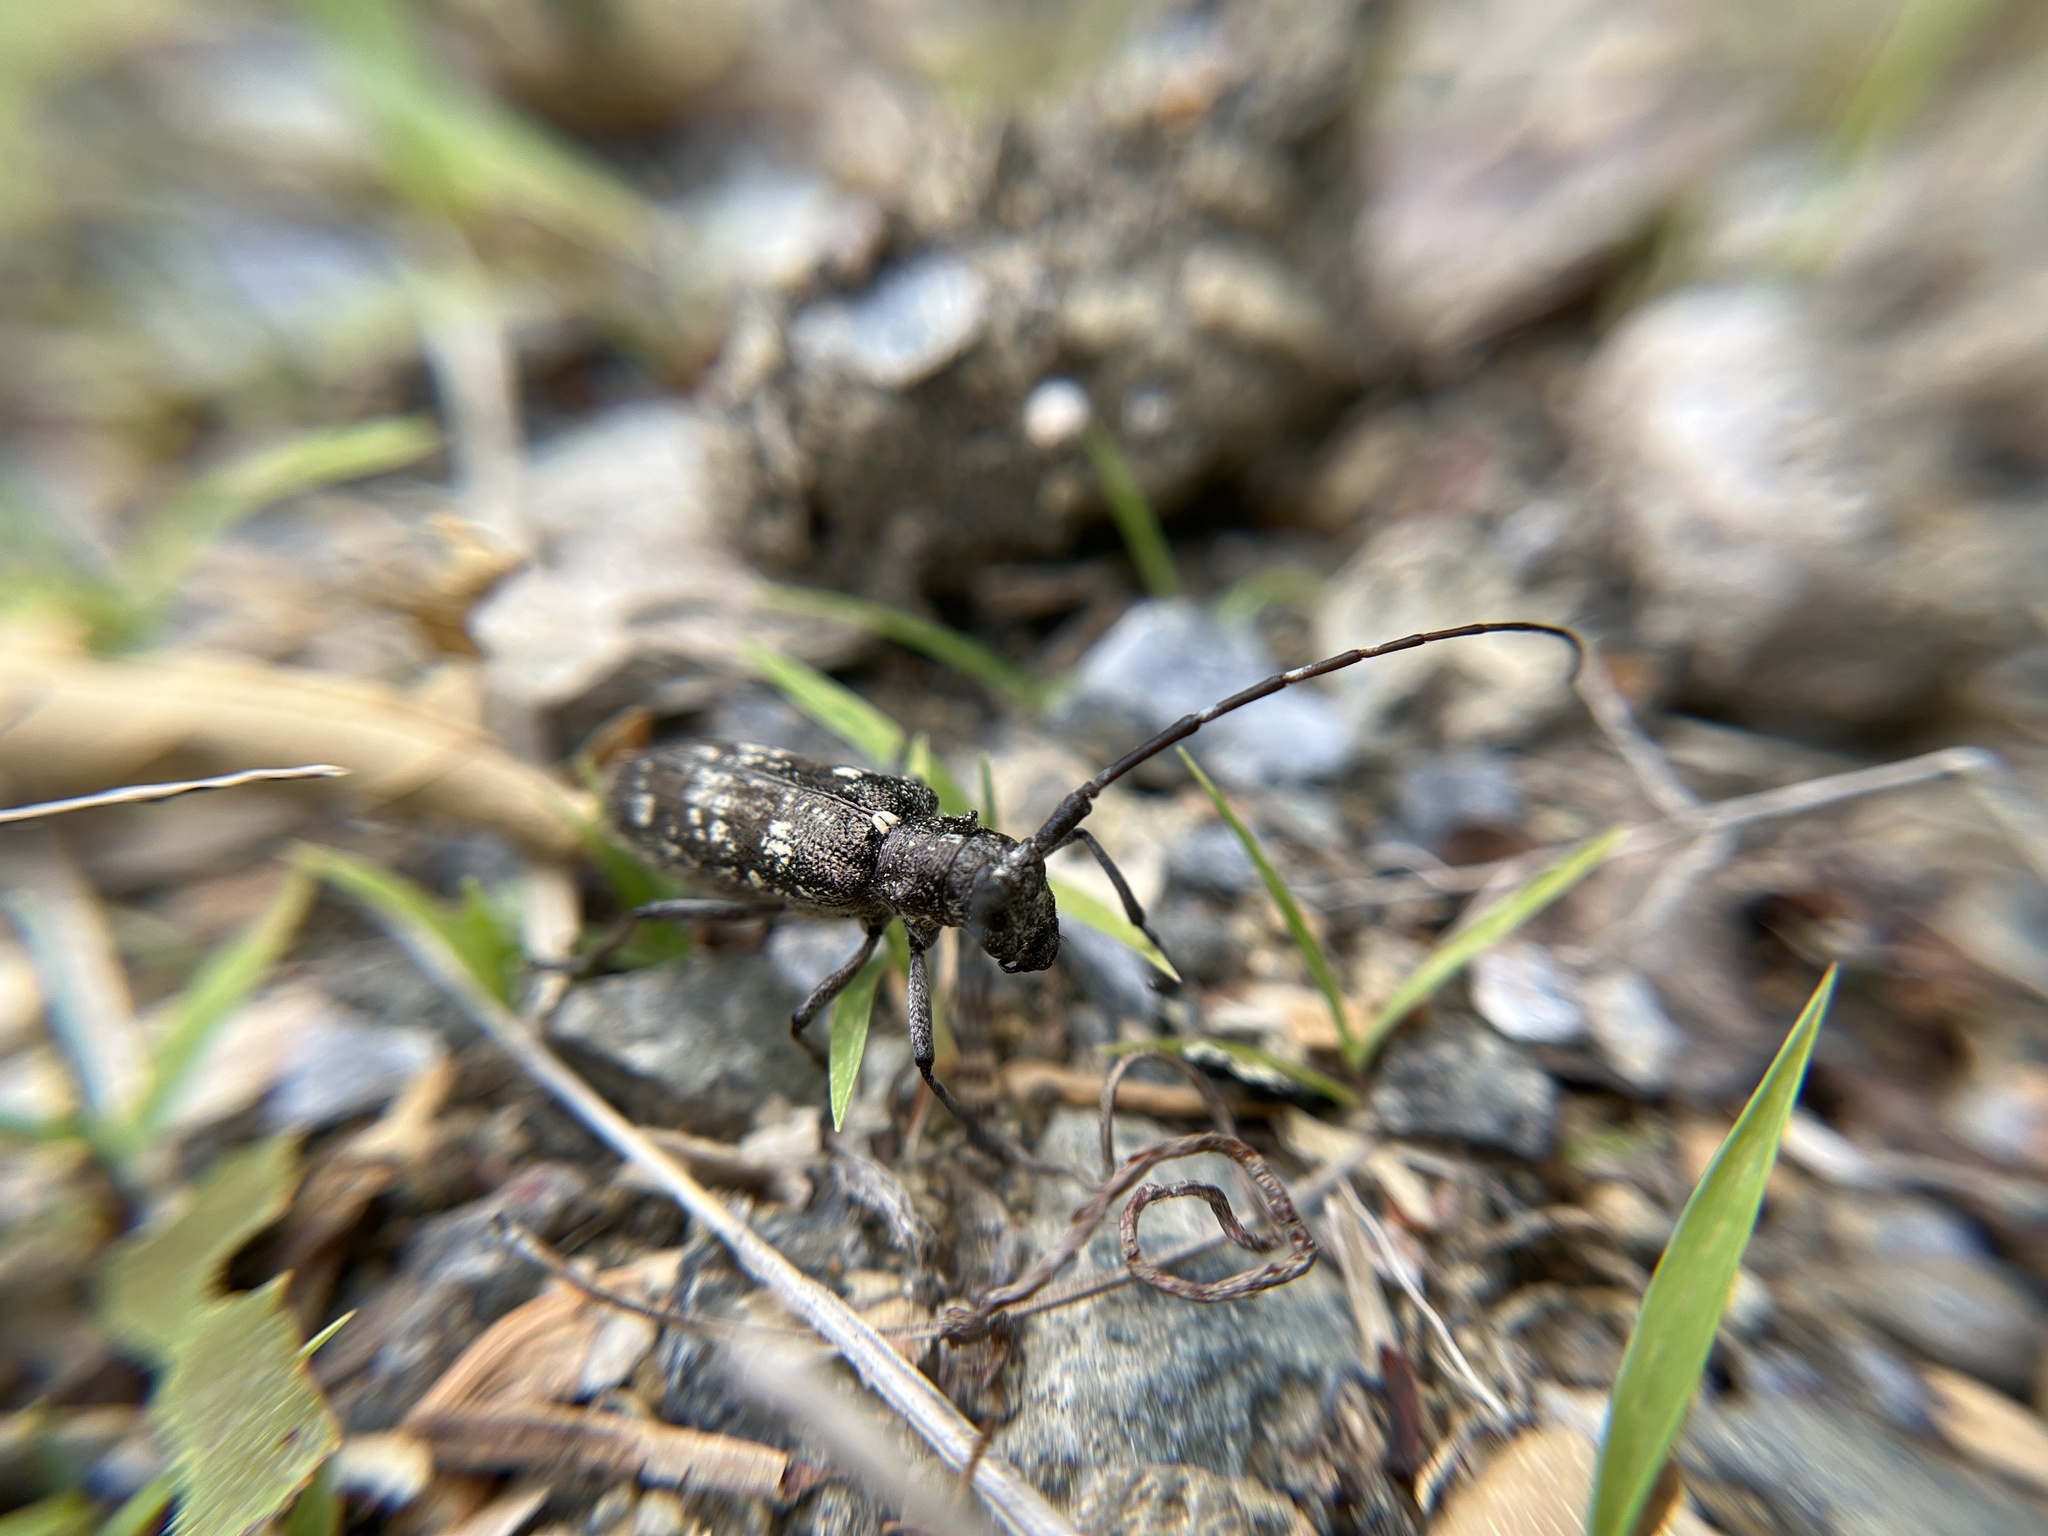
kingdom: Animalia
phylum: Arthropoda
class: Insecta
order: Coleoptera
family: Cerambycidae
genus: Monochamus
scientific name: Monochamus scutellatus
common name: White-spotted sawyer beetle
